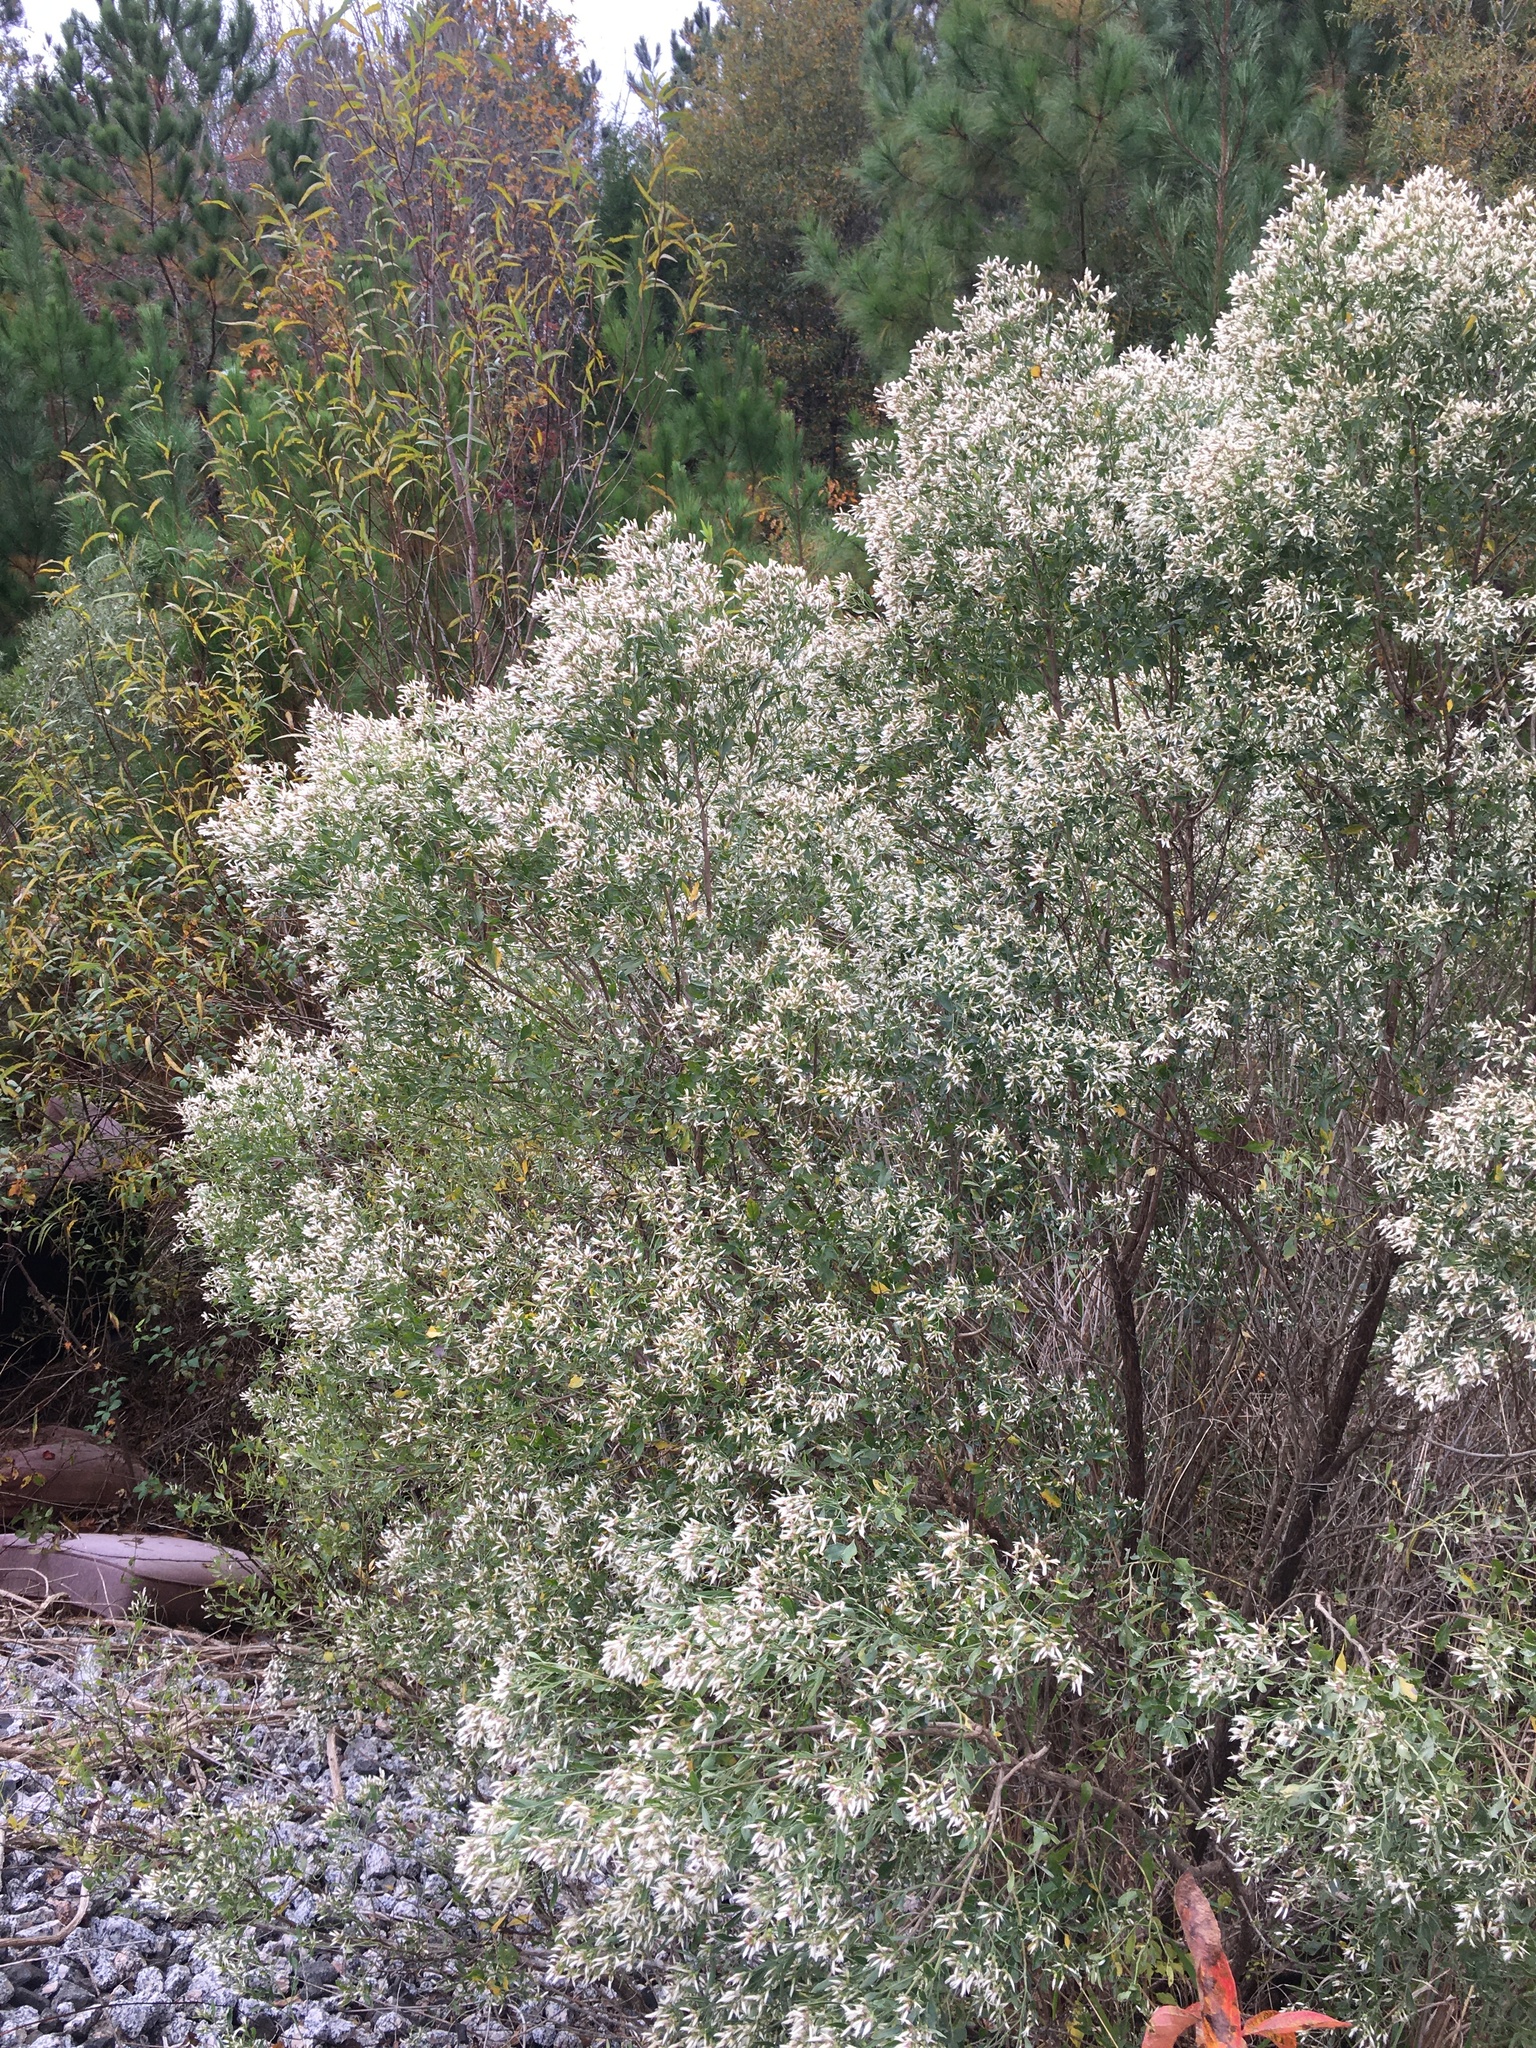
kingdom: Plantae
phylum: Tracheophyta
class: Magnoliopsida
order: Asterales
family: Asteraceae
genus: Baccharis
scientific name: Baccharis halimifolia
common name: Eastern baccharis
